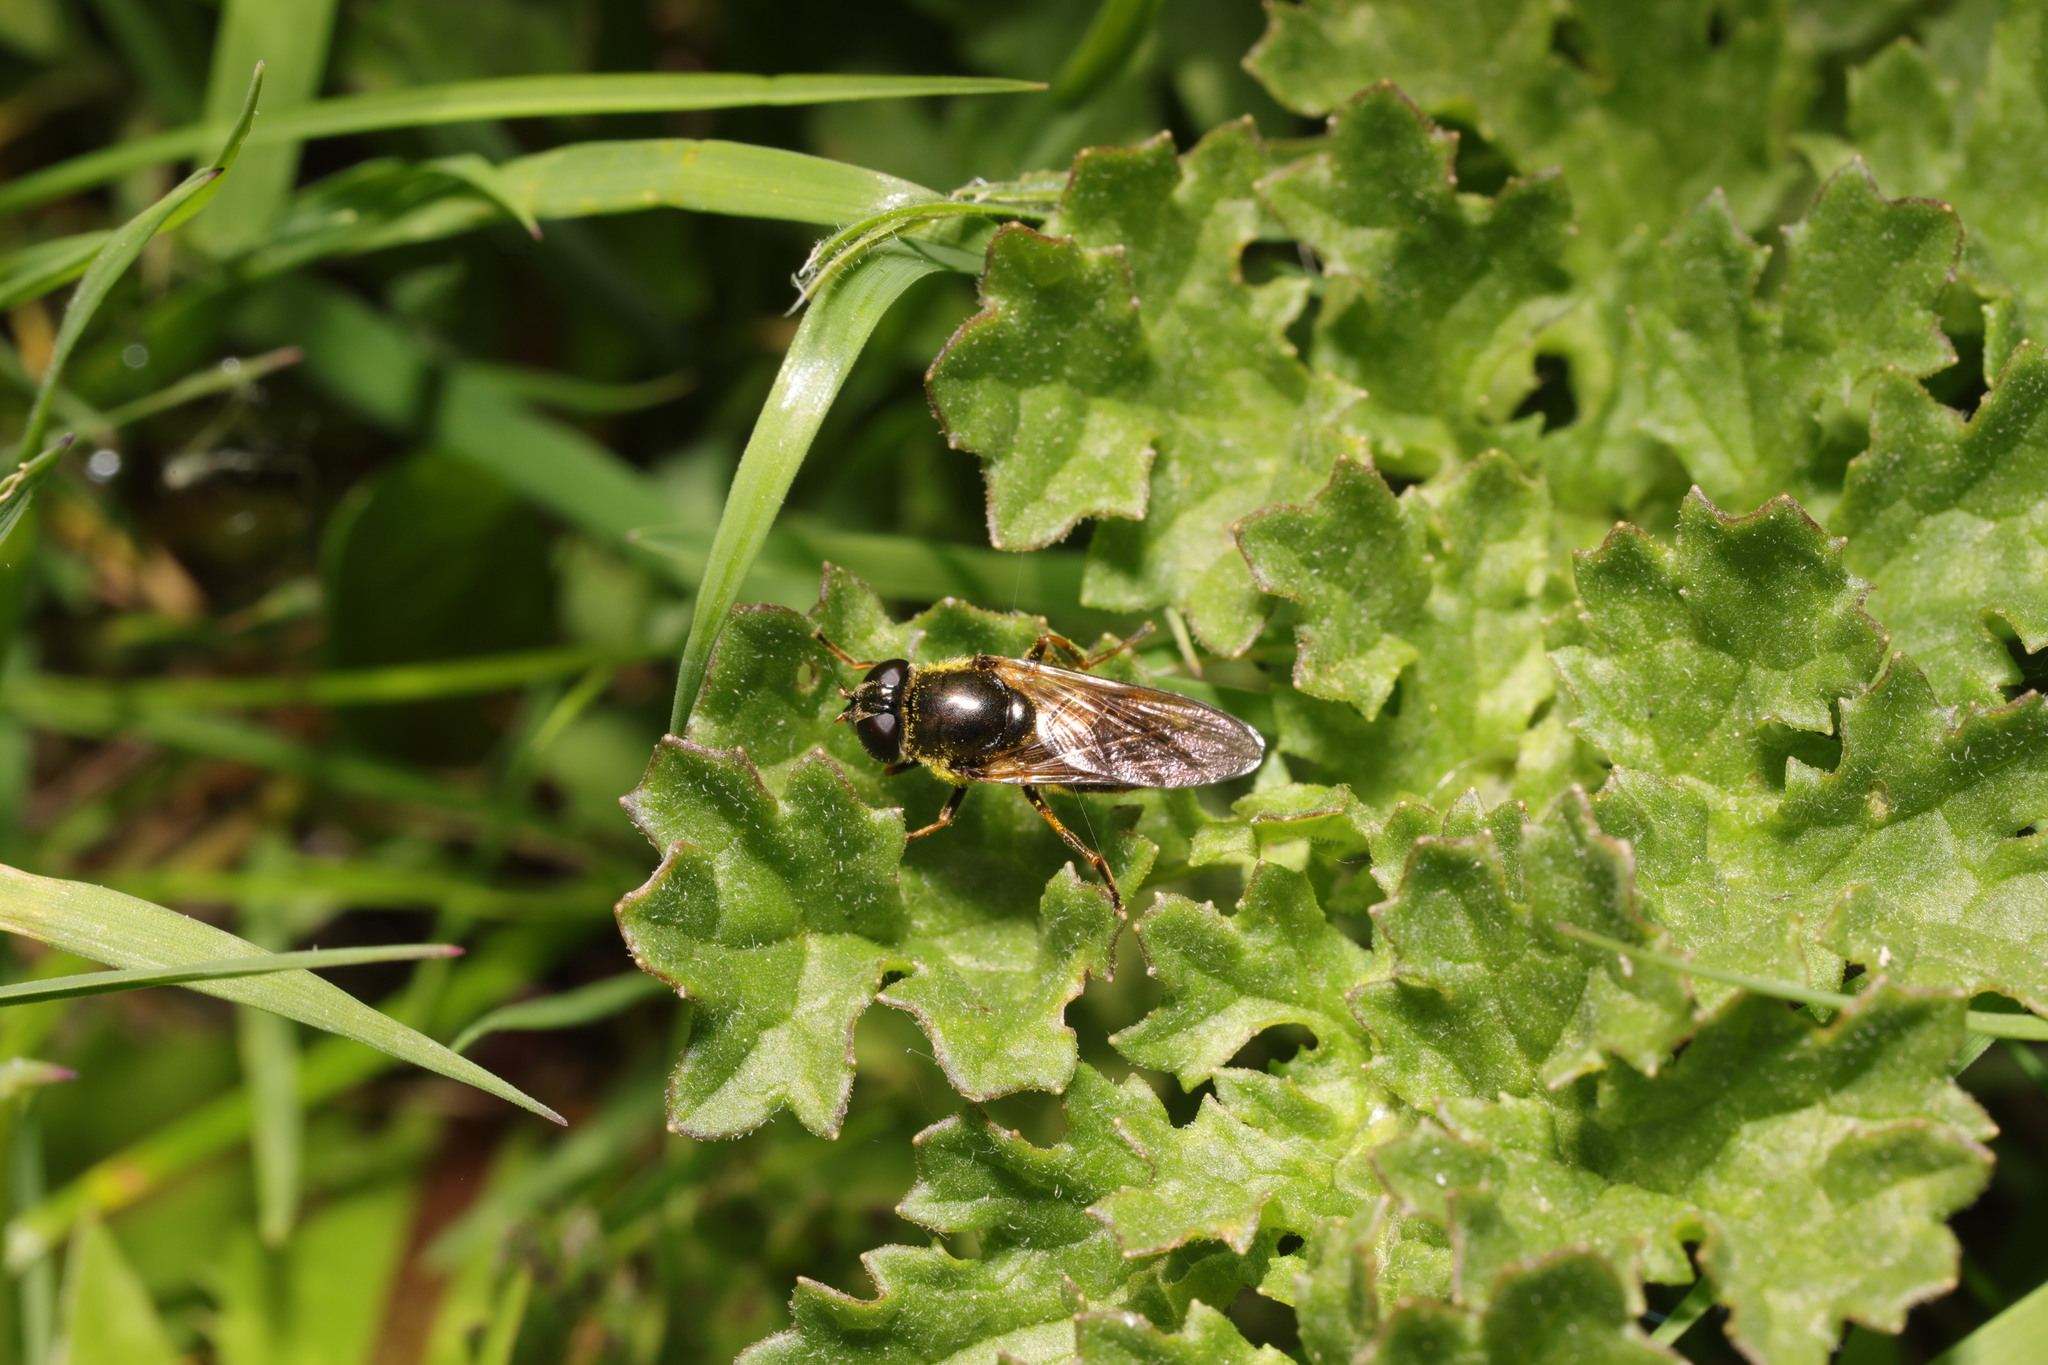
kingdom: Animalia
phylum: Arthropoda
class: Insecta
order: Diptera
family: Syrphidae
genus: Cheilosia
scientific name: Cheilosia albipila
